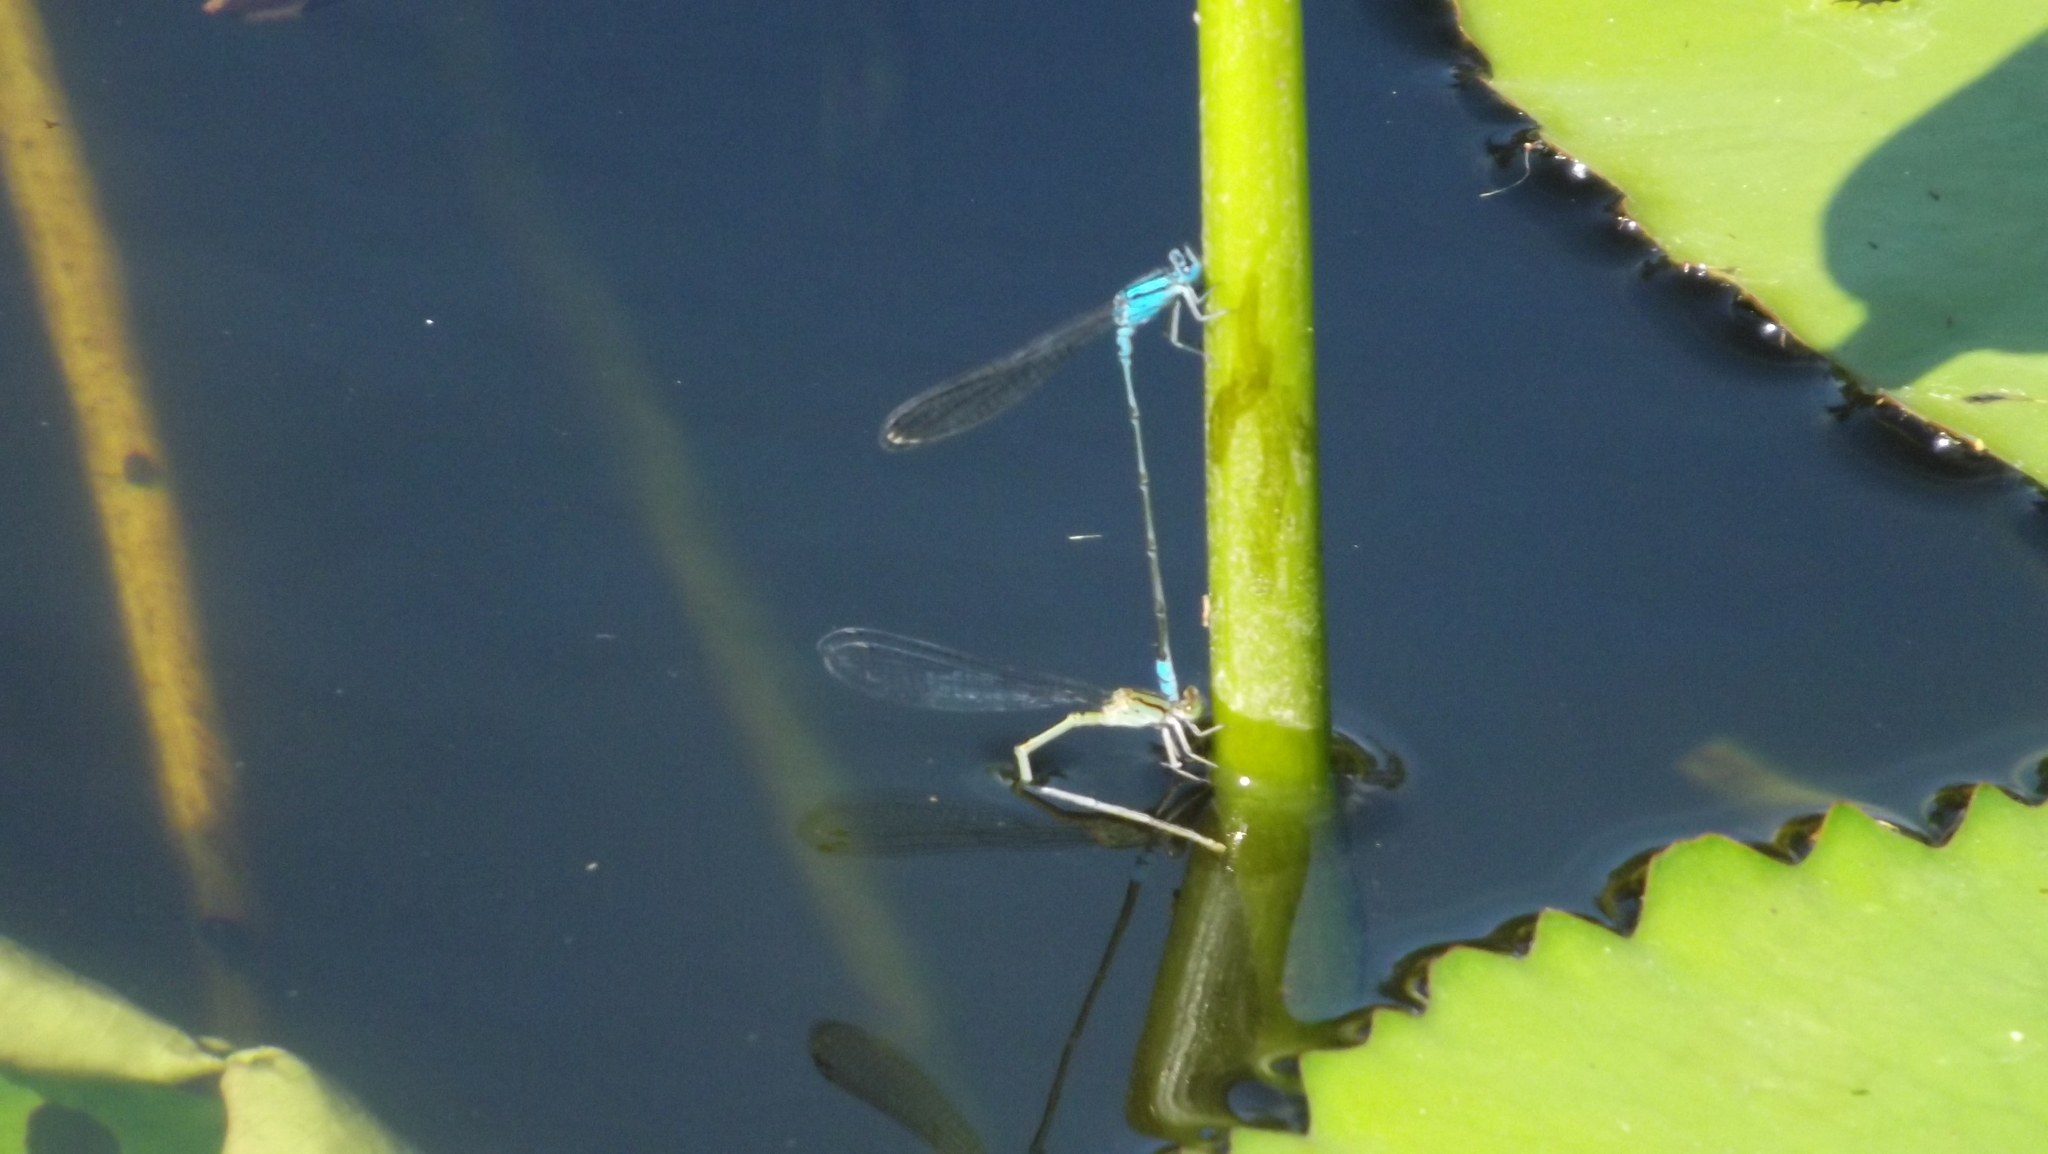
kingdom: Animalia
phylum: Arthropoda
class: Insecta
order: Odonata
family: Coenagrionidae
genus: Pseudagrion
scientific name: Pseudagrion microcephalum
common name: Blue riverdamsel
